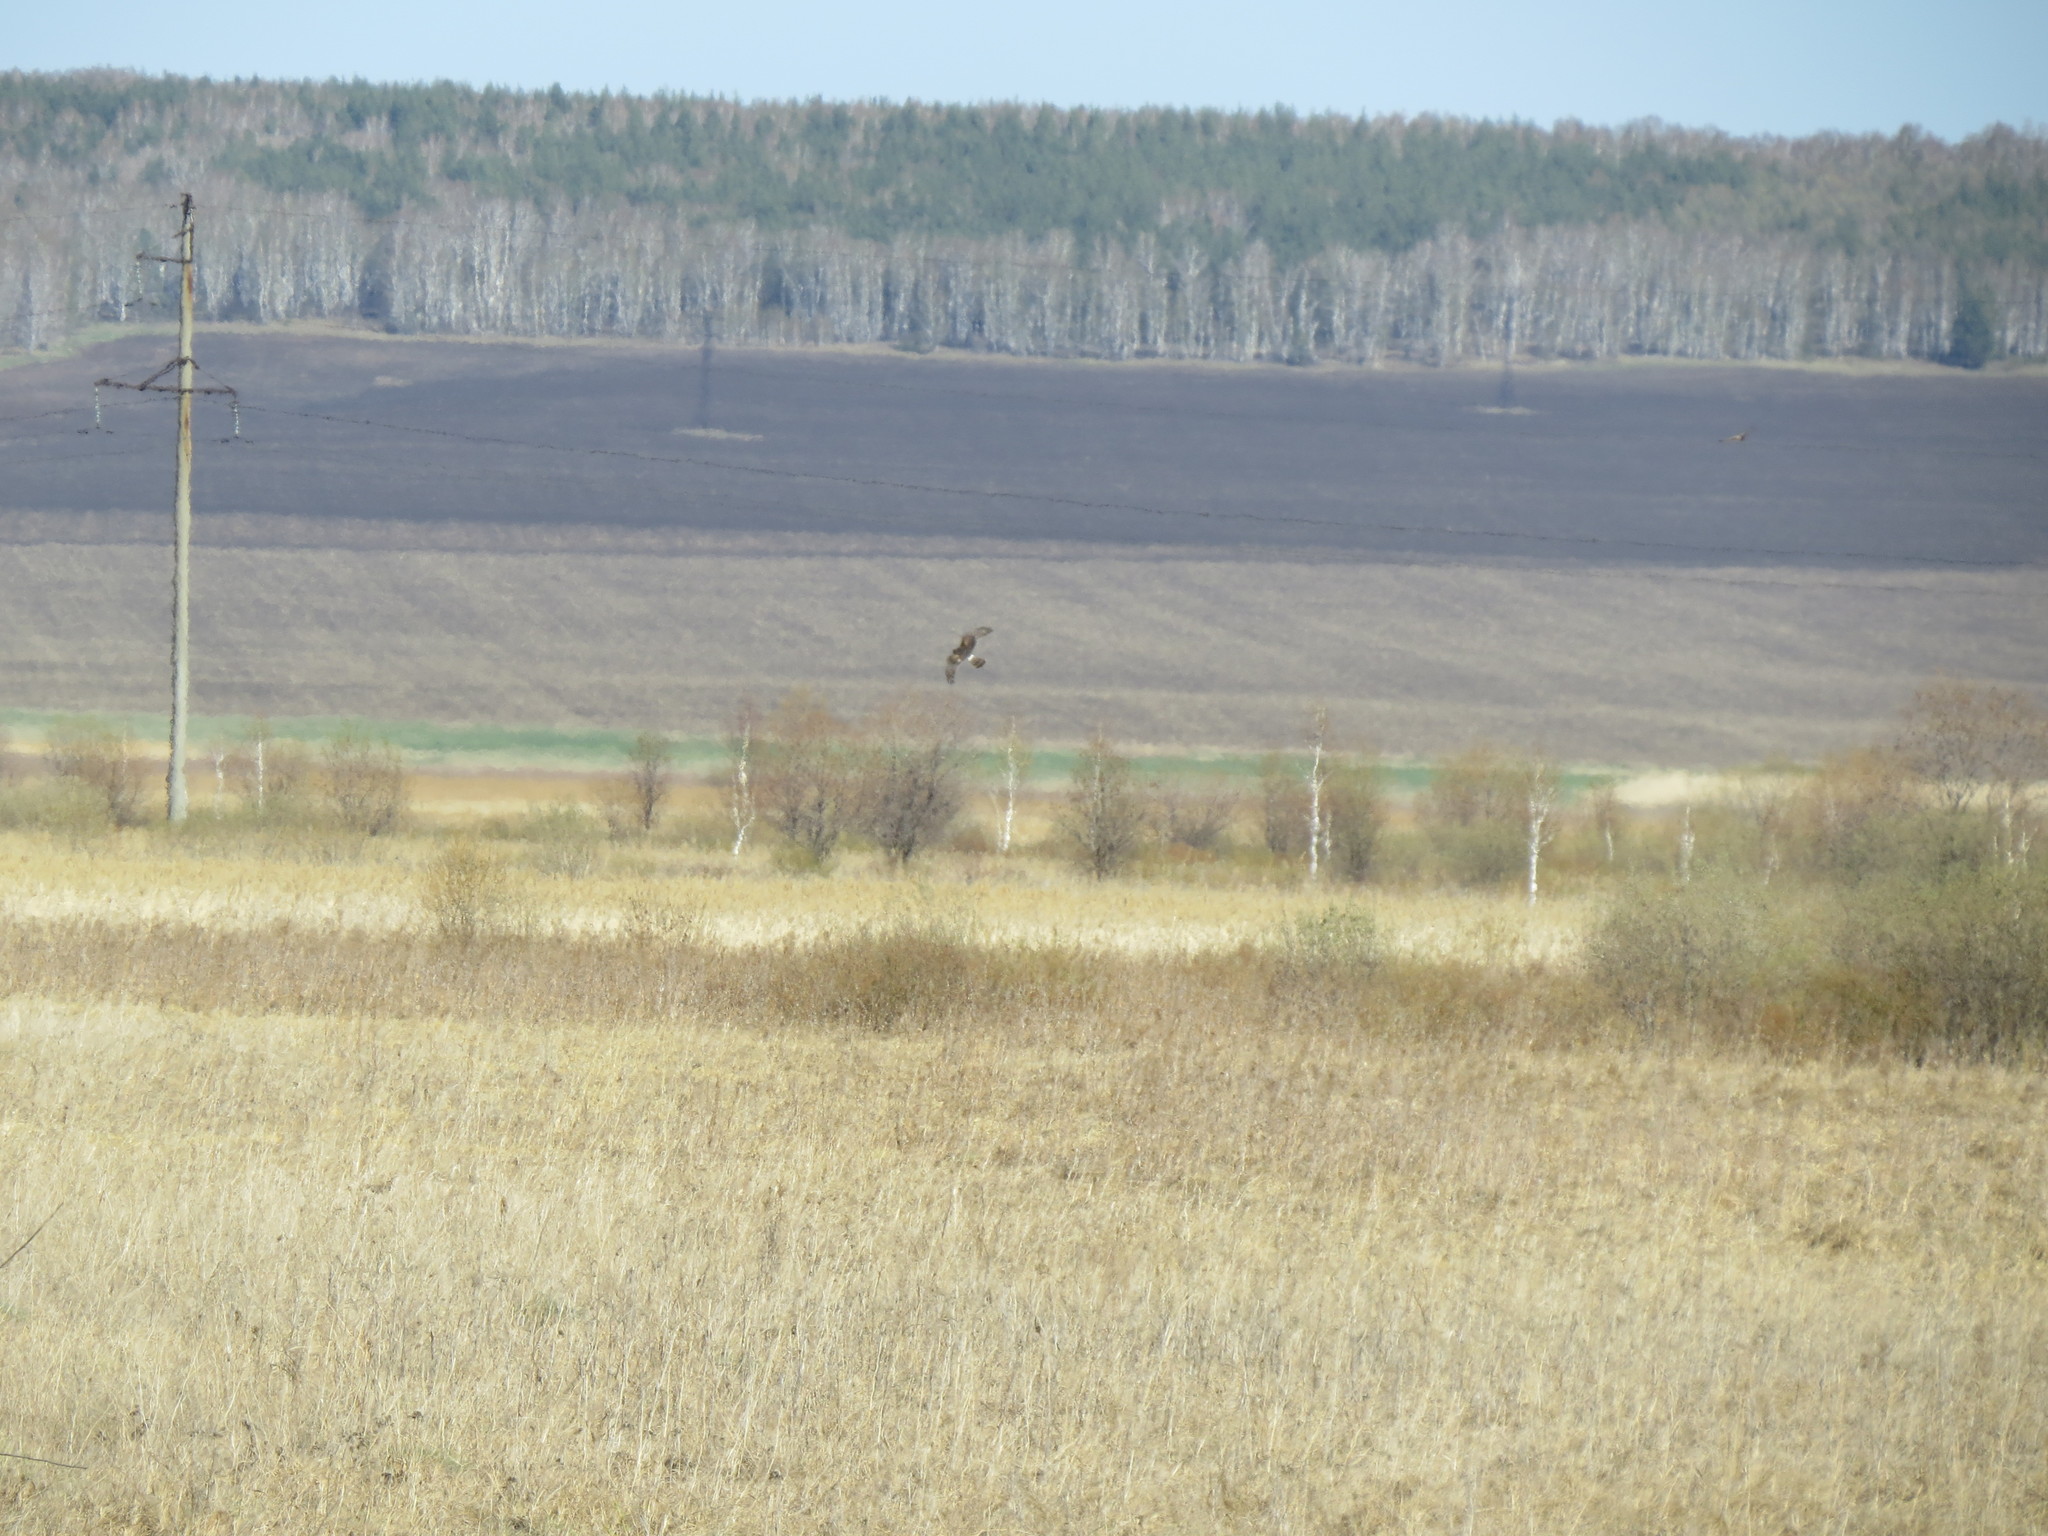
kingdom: Animalia
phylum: Chordata
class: Aves
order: Accipitriformes
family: Accipitridae
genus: Circus
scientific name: Circus cyaneus
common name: Hen harrier
